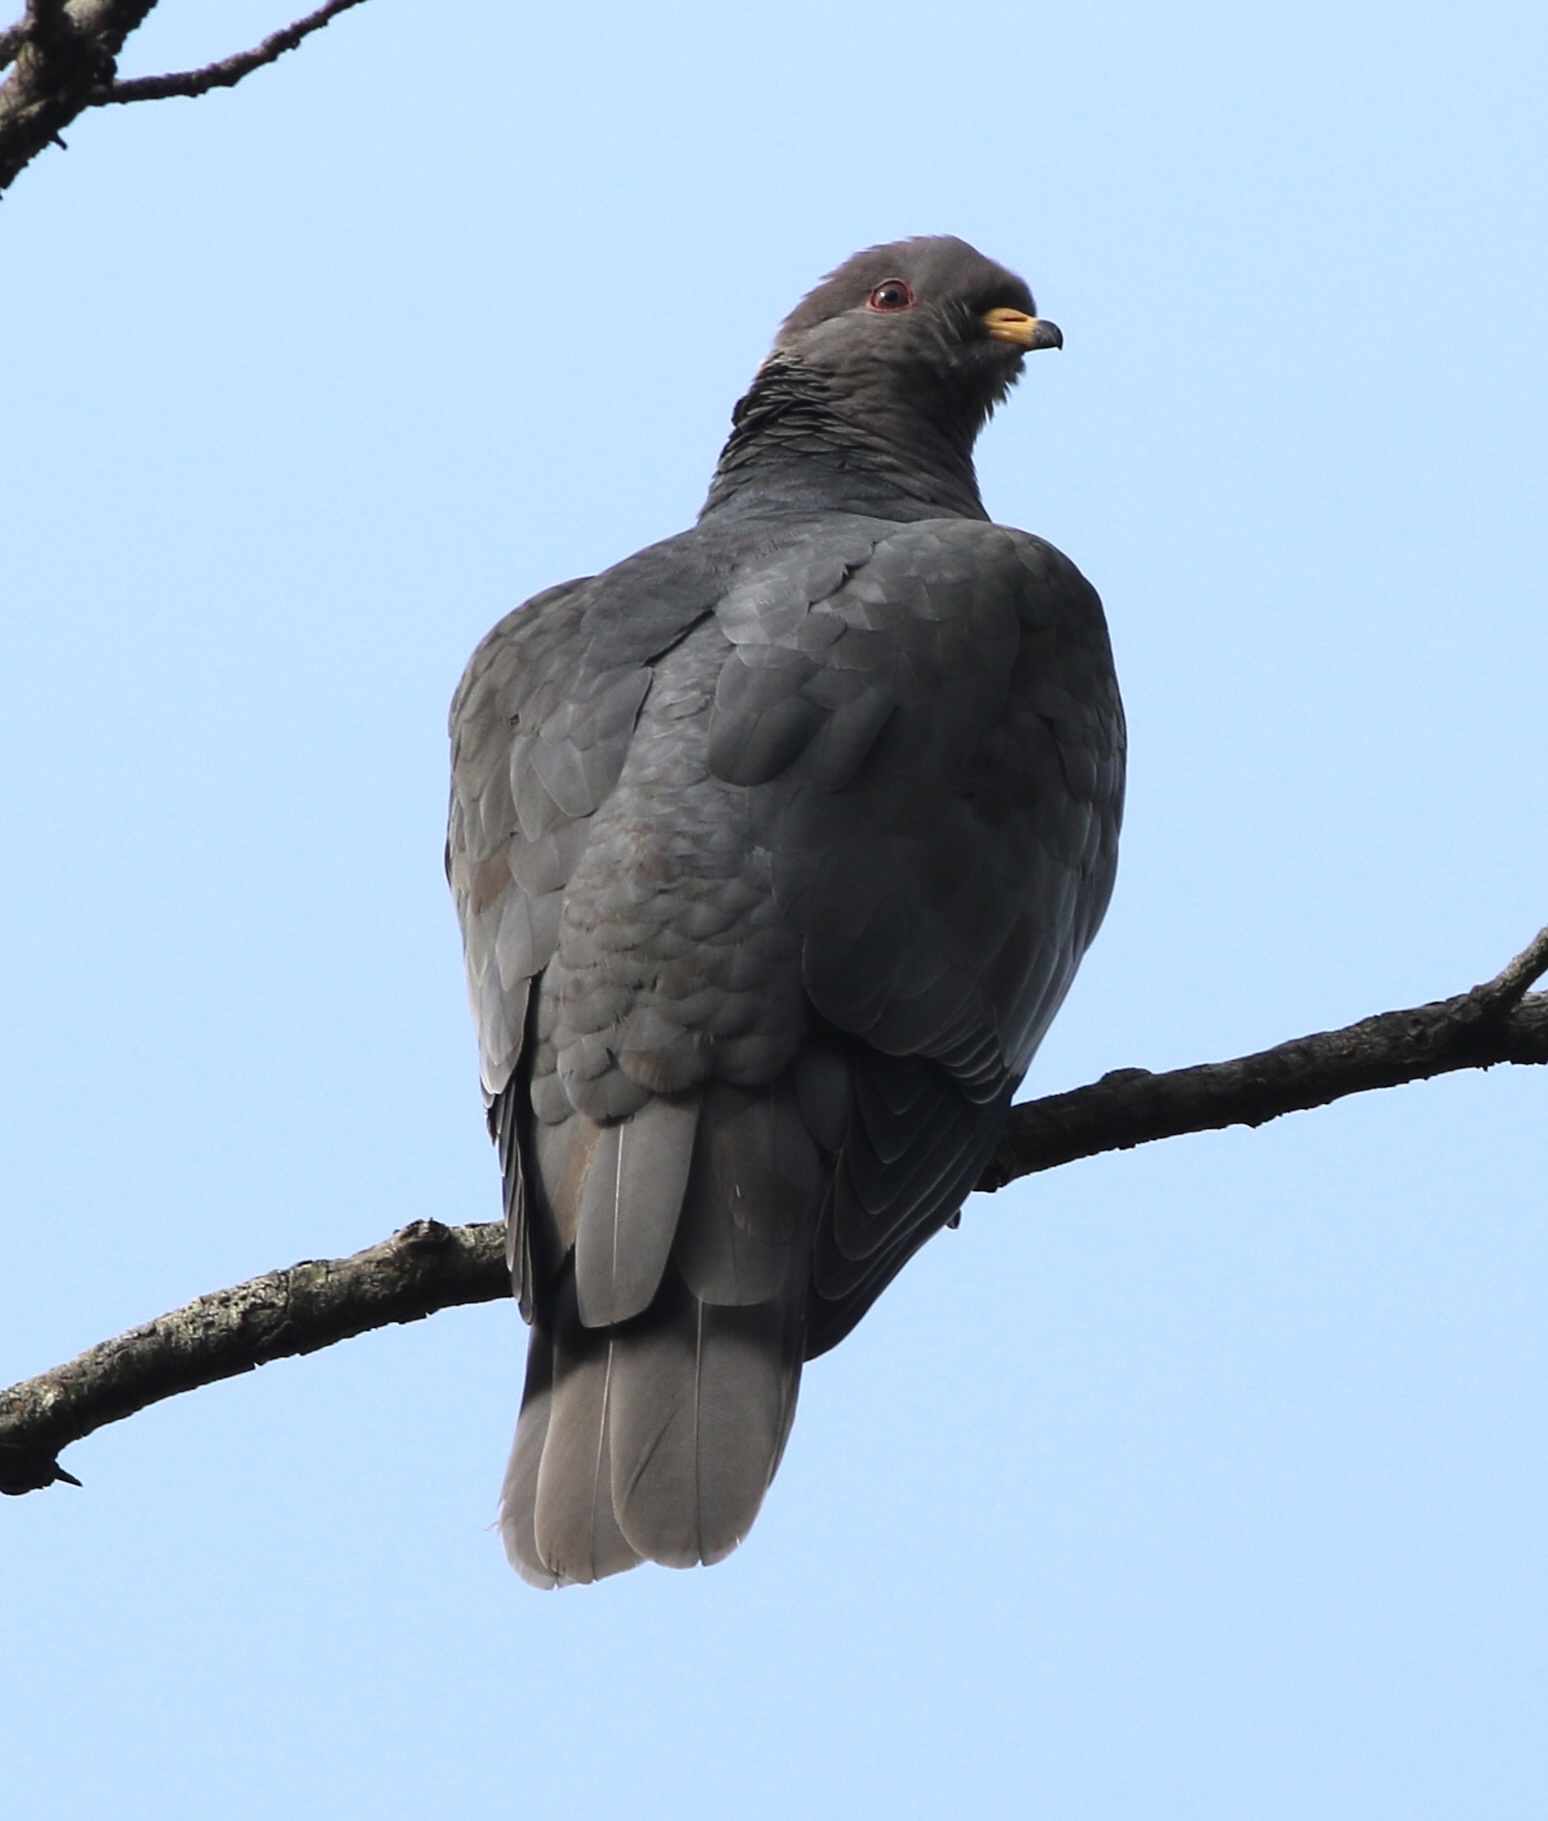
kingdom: Animalia
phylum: Chordata
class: Aves
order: Columbiformes
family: Columbidae
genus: Patagioenas
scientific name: Patagioenas fasciata
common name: Band-tailed pigeon
